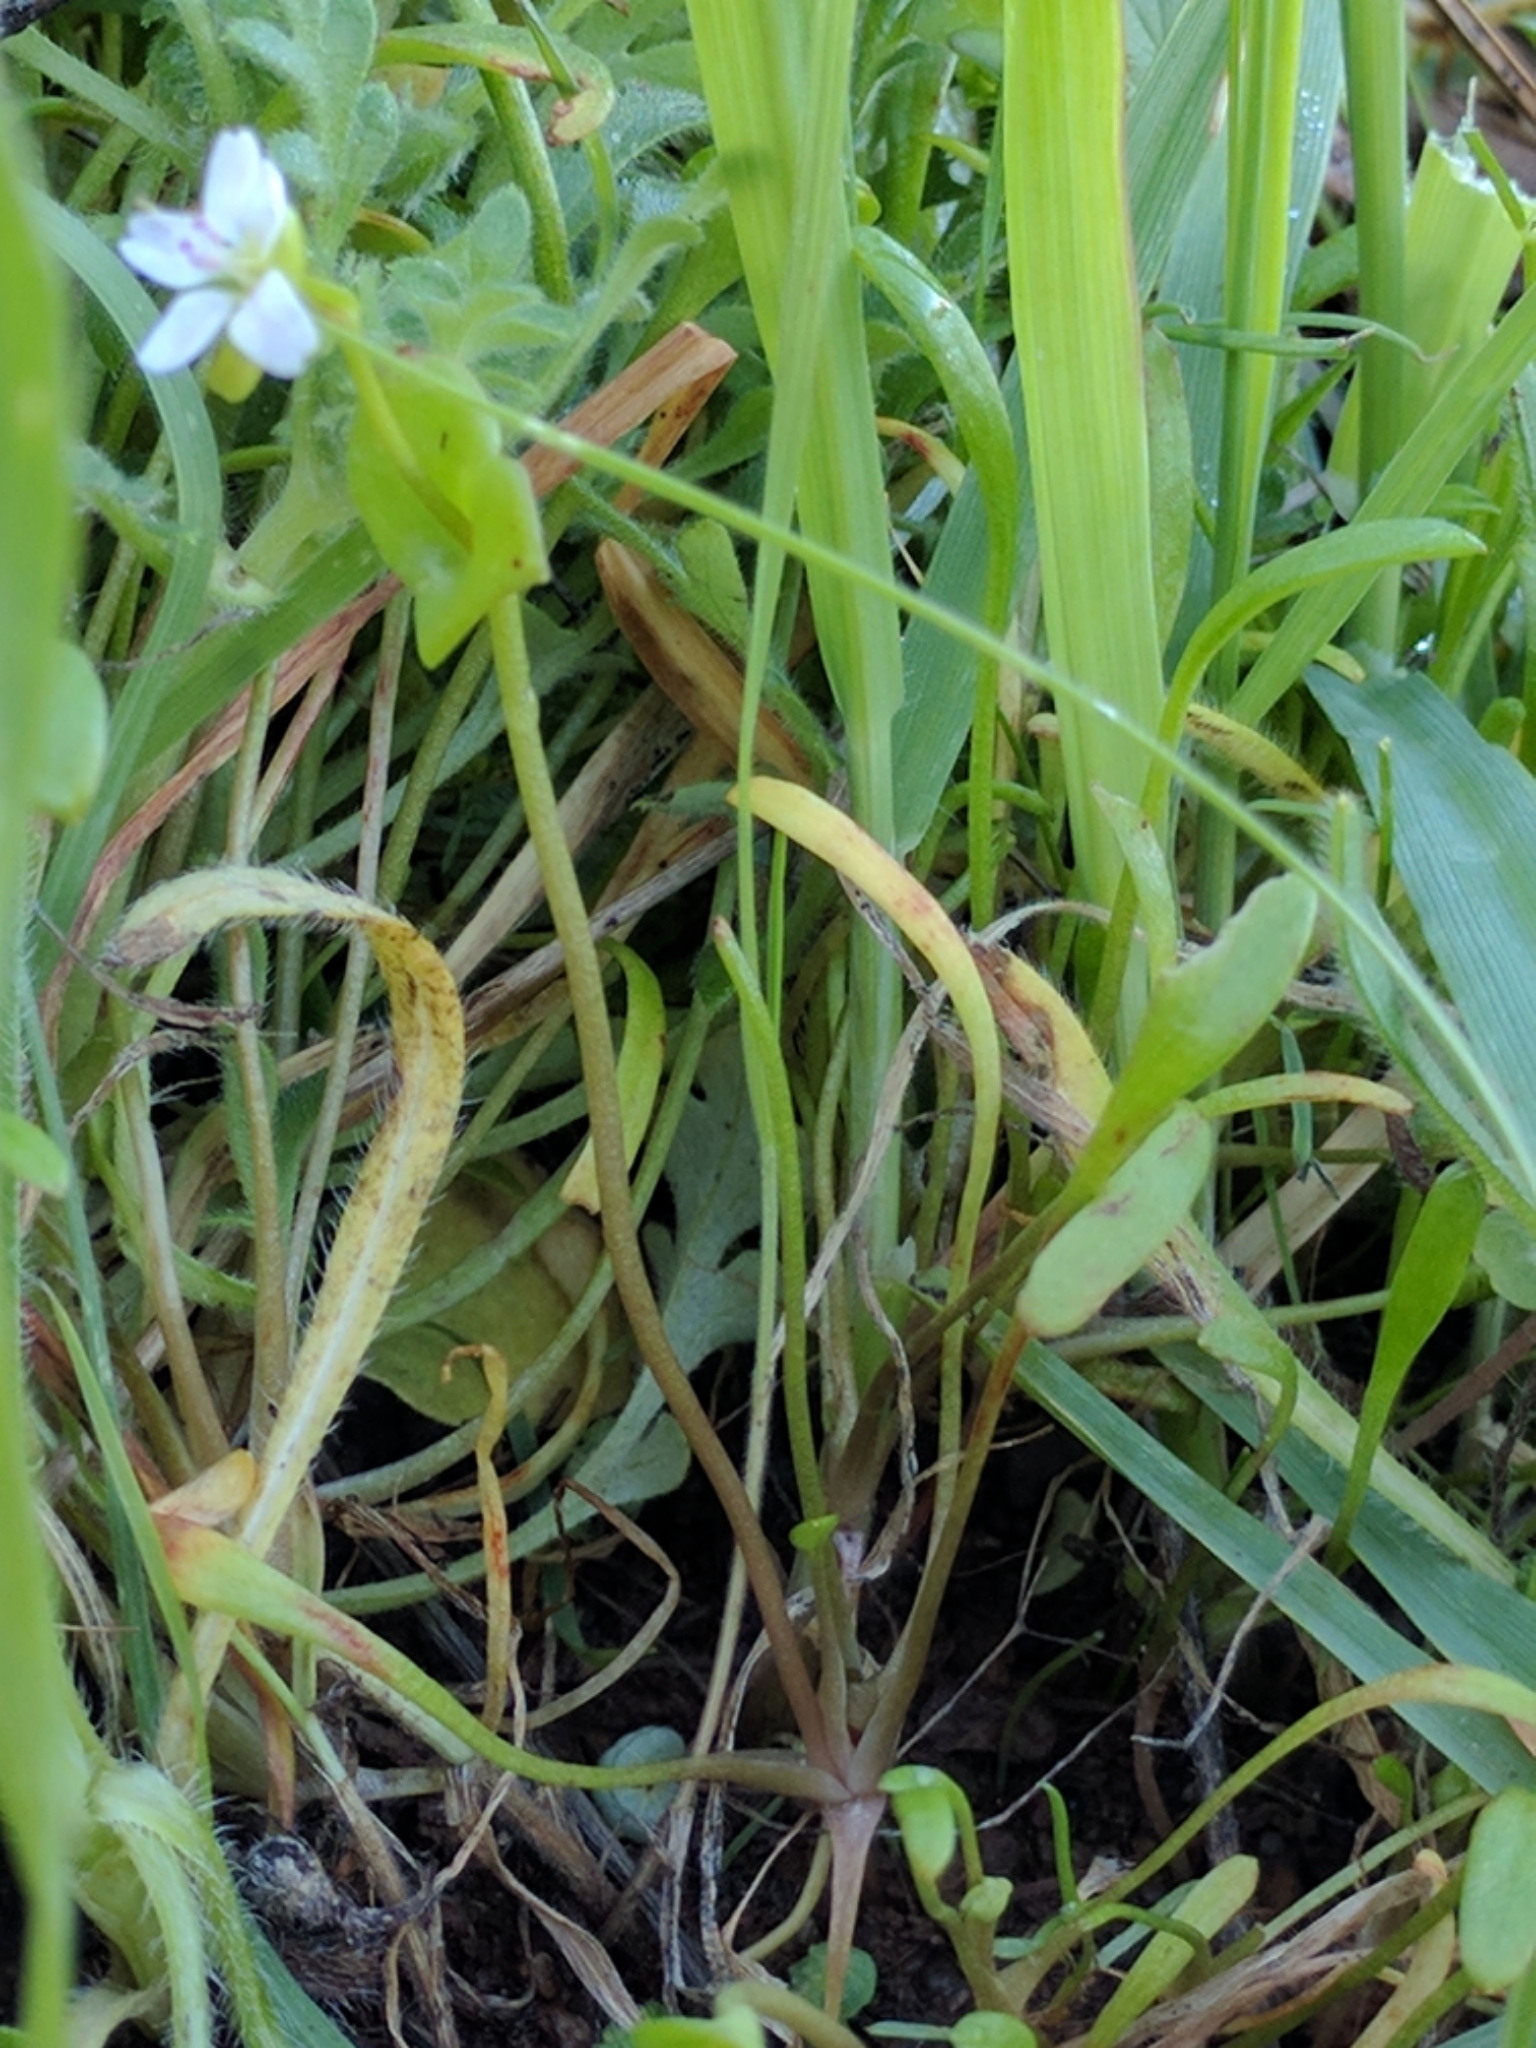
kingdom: Plantae
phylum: Tracheophyta
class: Magnoliopsida
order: Caryophyllales
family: Montiaceae
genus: Claytonia
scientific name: Claytonia parviflora
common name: Indian-lettuce
